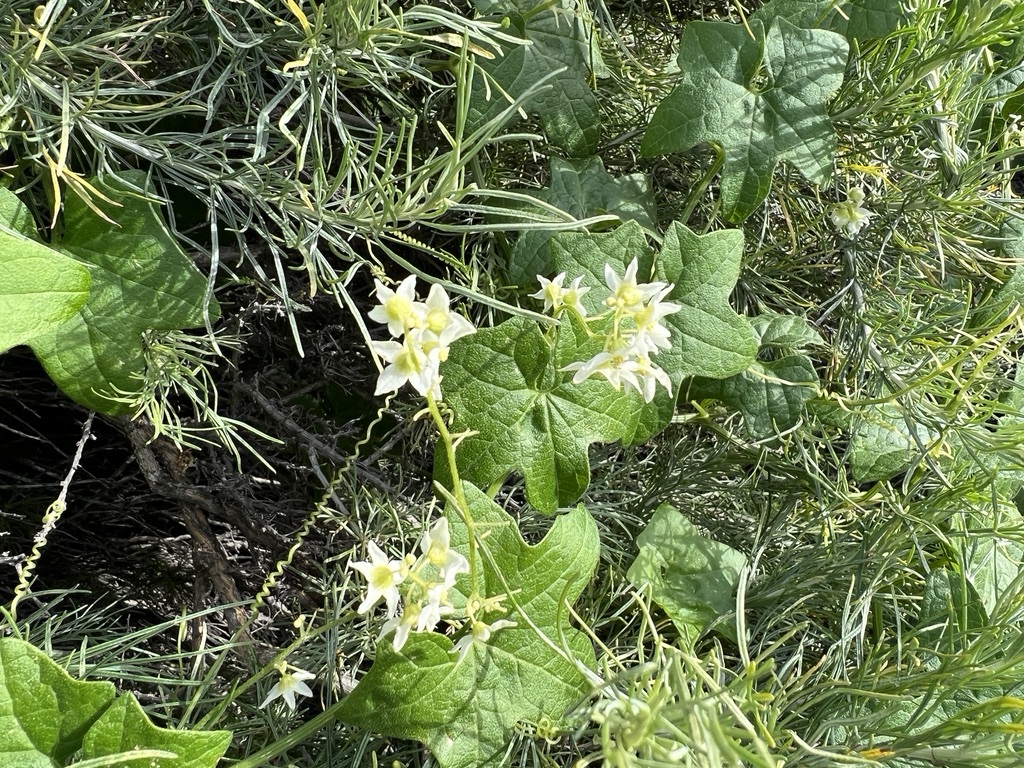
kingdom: Plantae
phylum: Tracheophyta
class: Magnoliopsida
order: Cucurbitales
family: Cucurbitaceae
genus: Marah
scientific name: Marah macrocarpa
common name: Cucamonga manroot
